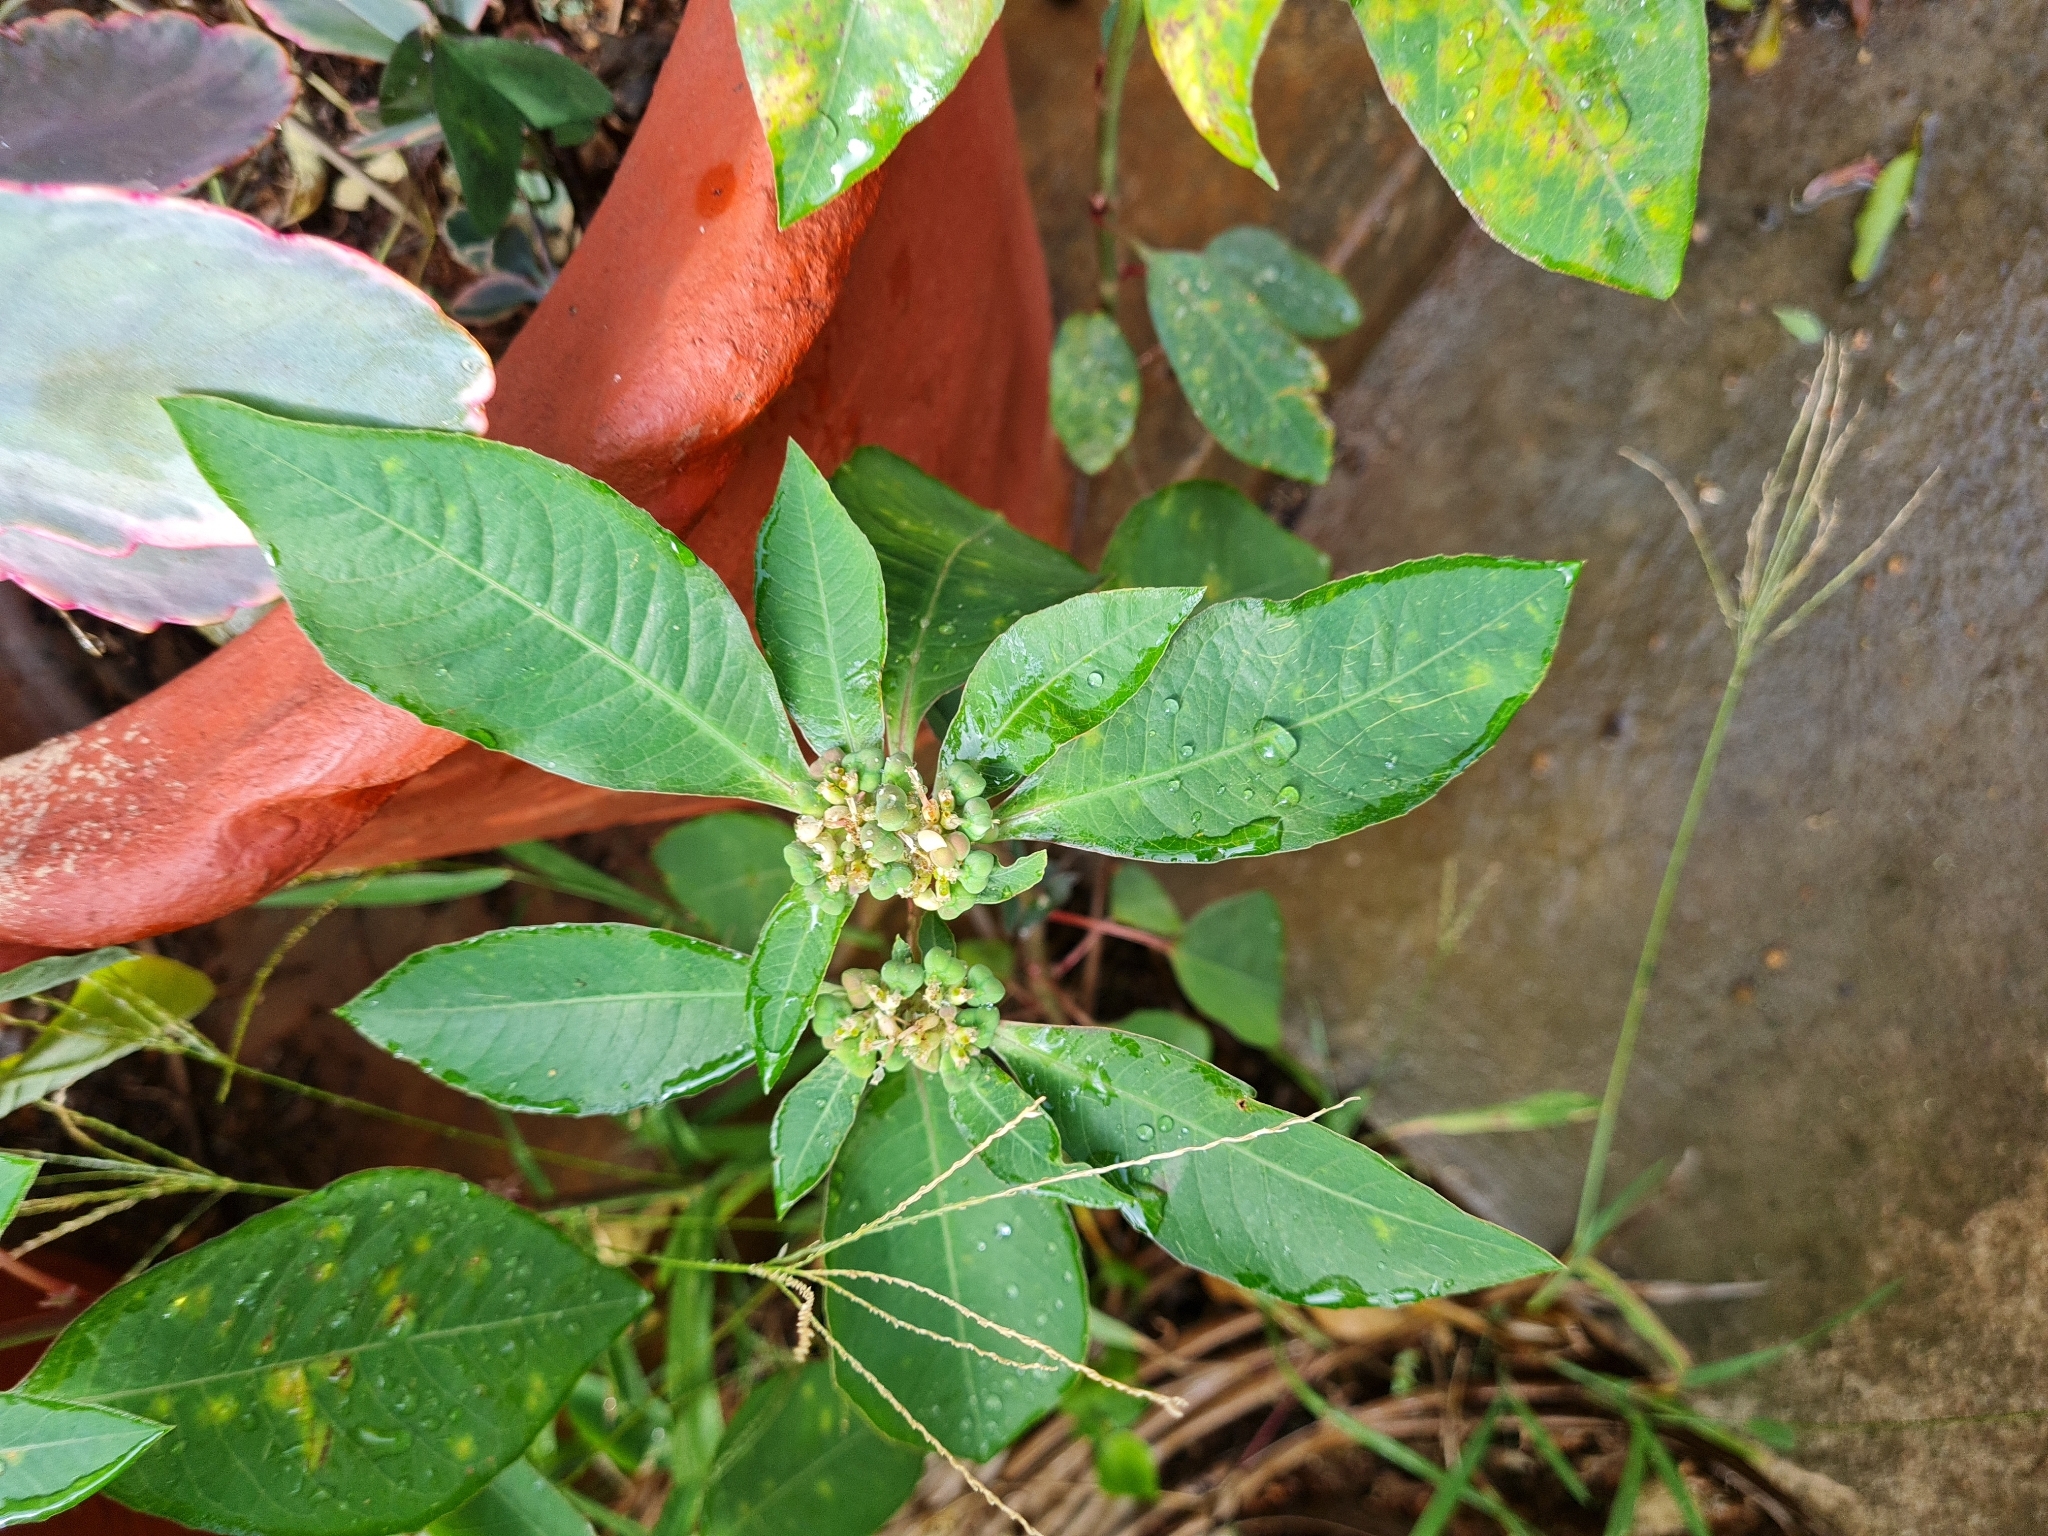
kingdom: Plantae
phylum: Tracheophyta
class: Magnoliopsida
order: Malpighiales
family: Euphorbiaceae
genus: Euphorbia
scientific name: Euphorbia heterophylla
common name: Mexican fireplant
